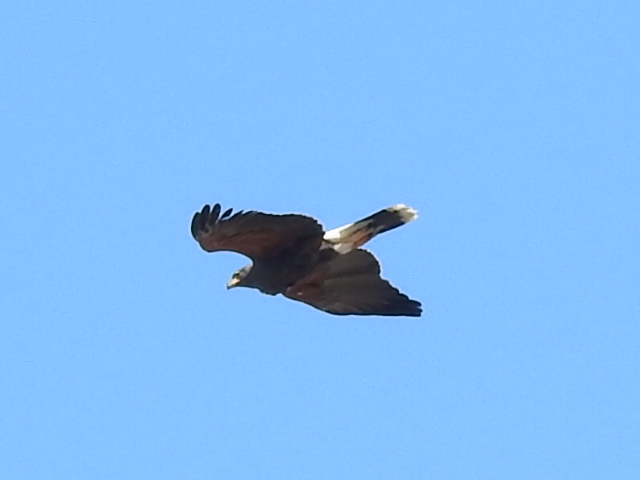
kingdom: Animalia
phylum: Chordata
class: Aves
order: Accipitriformes
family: Accipitridae
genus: Parabuteo
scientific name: Parabuteo unicinctus
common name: Harris's hawk
